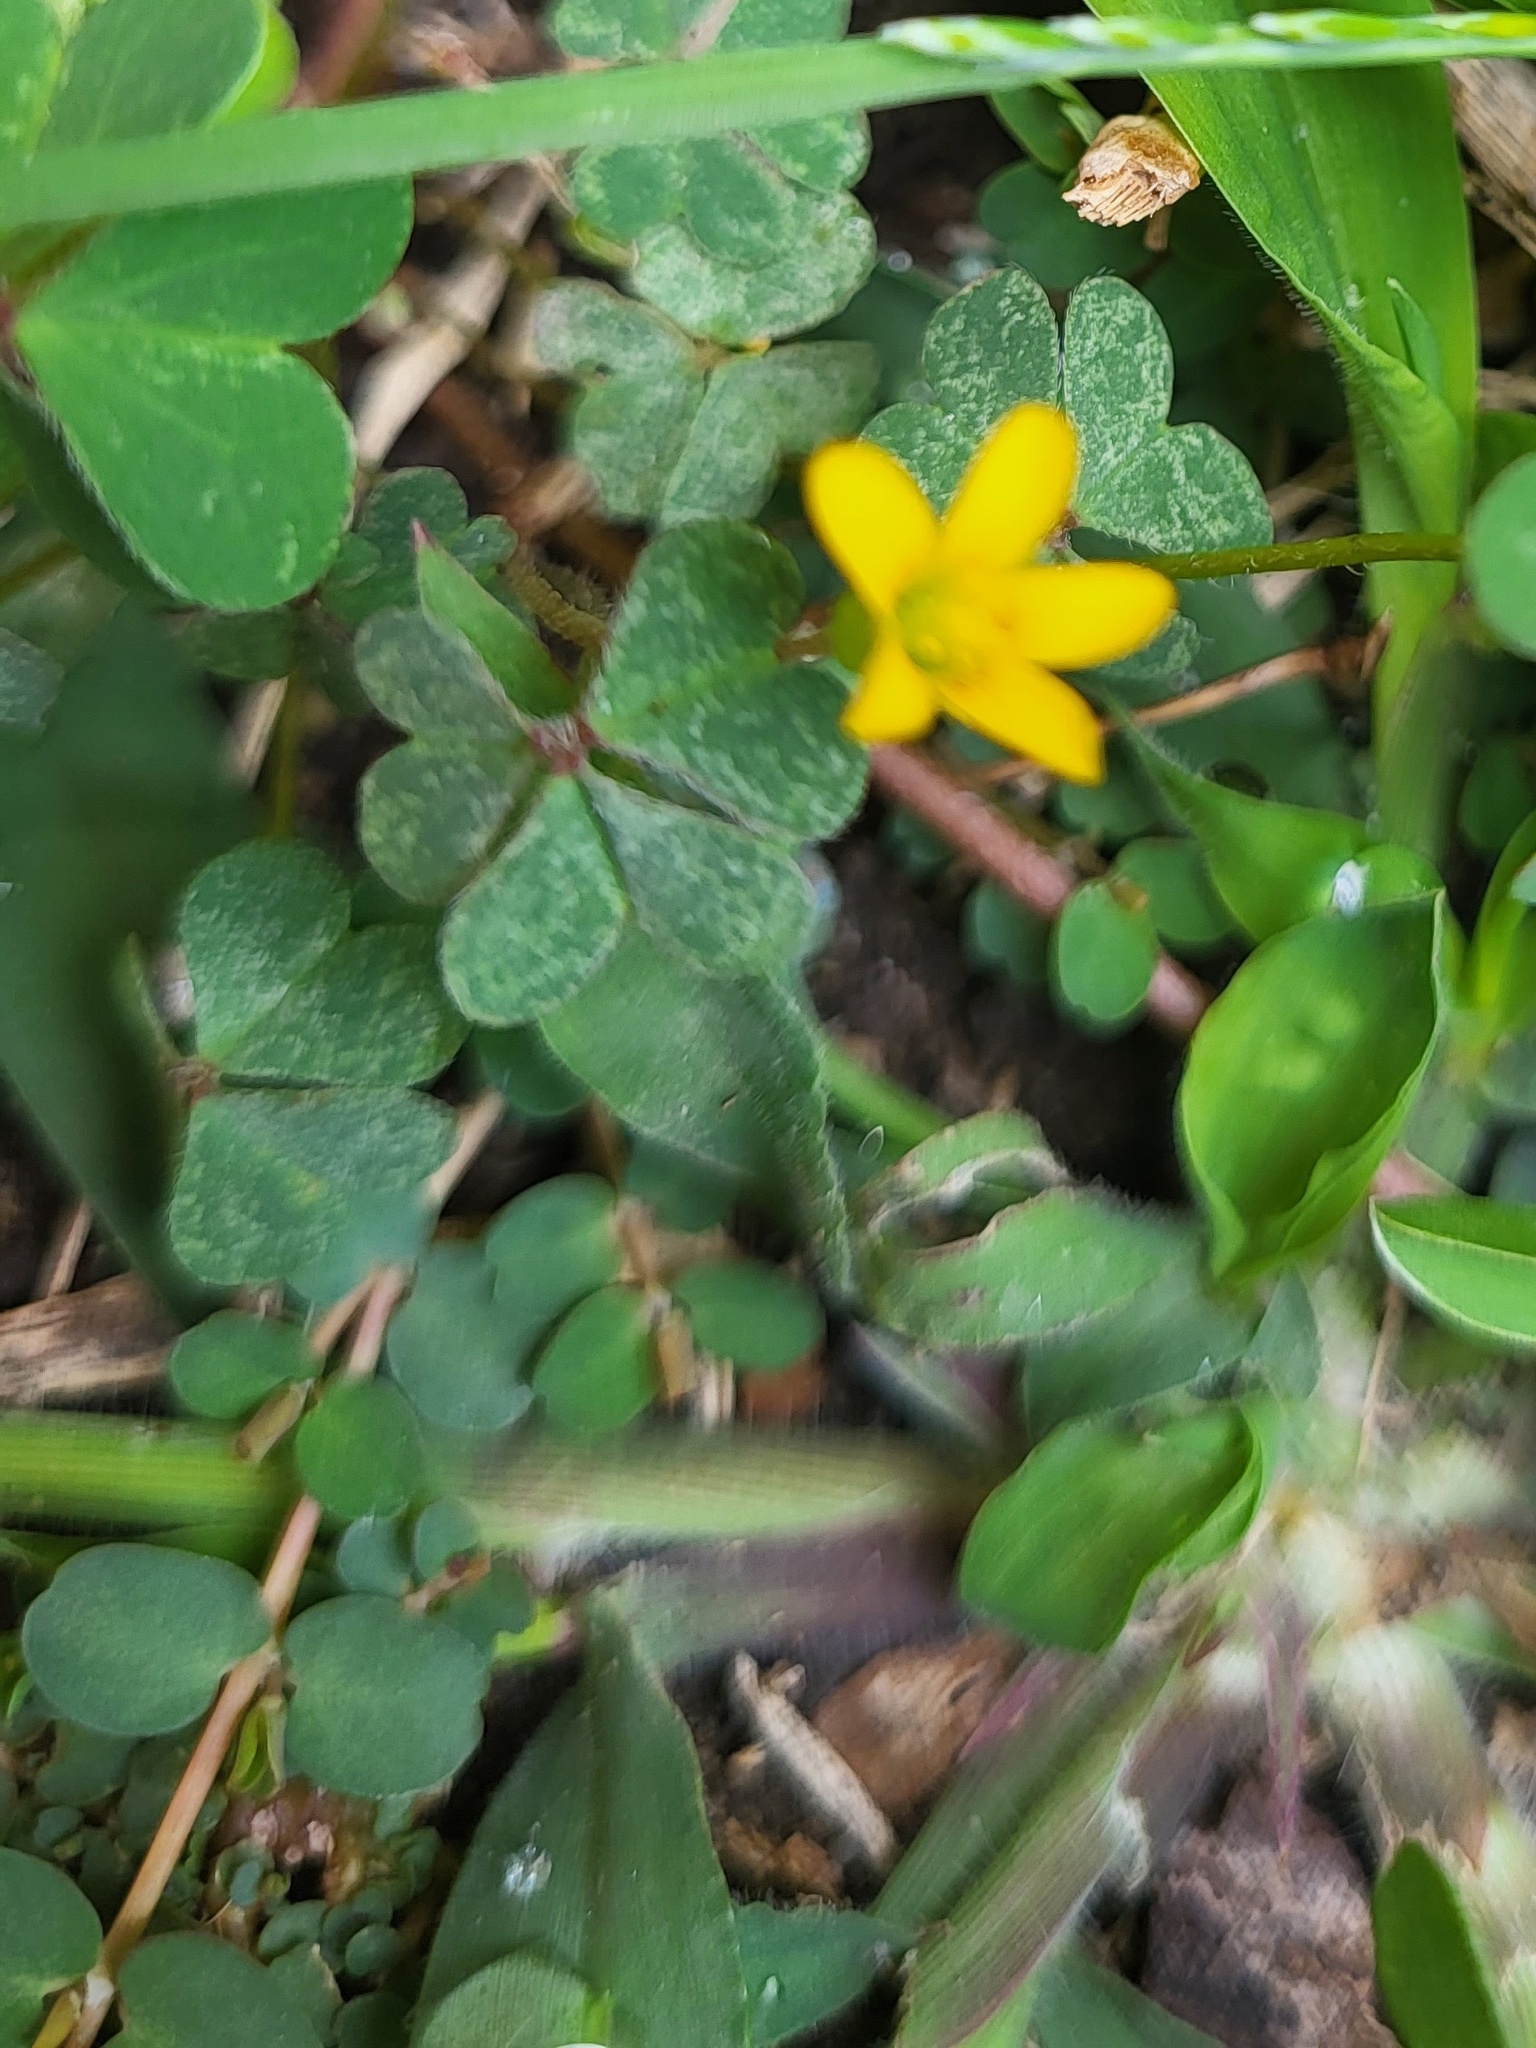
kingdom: Plantae
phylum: Tracheophyta
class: Magnoliopsida
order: Oxalidales
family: Oxalidaceae
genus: Oxalis
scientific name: Oxalis corniculata
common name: Procumbent yellow-sorrel
